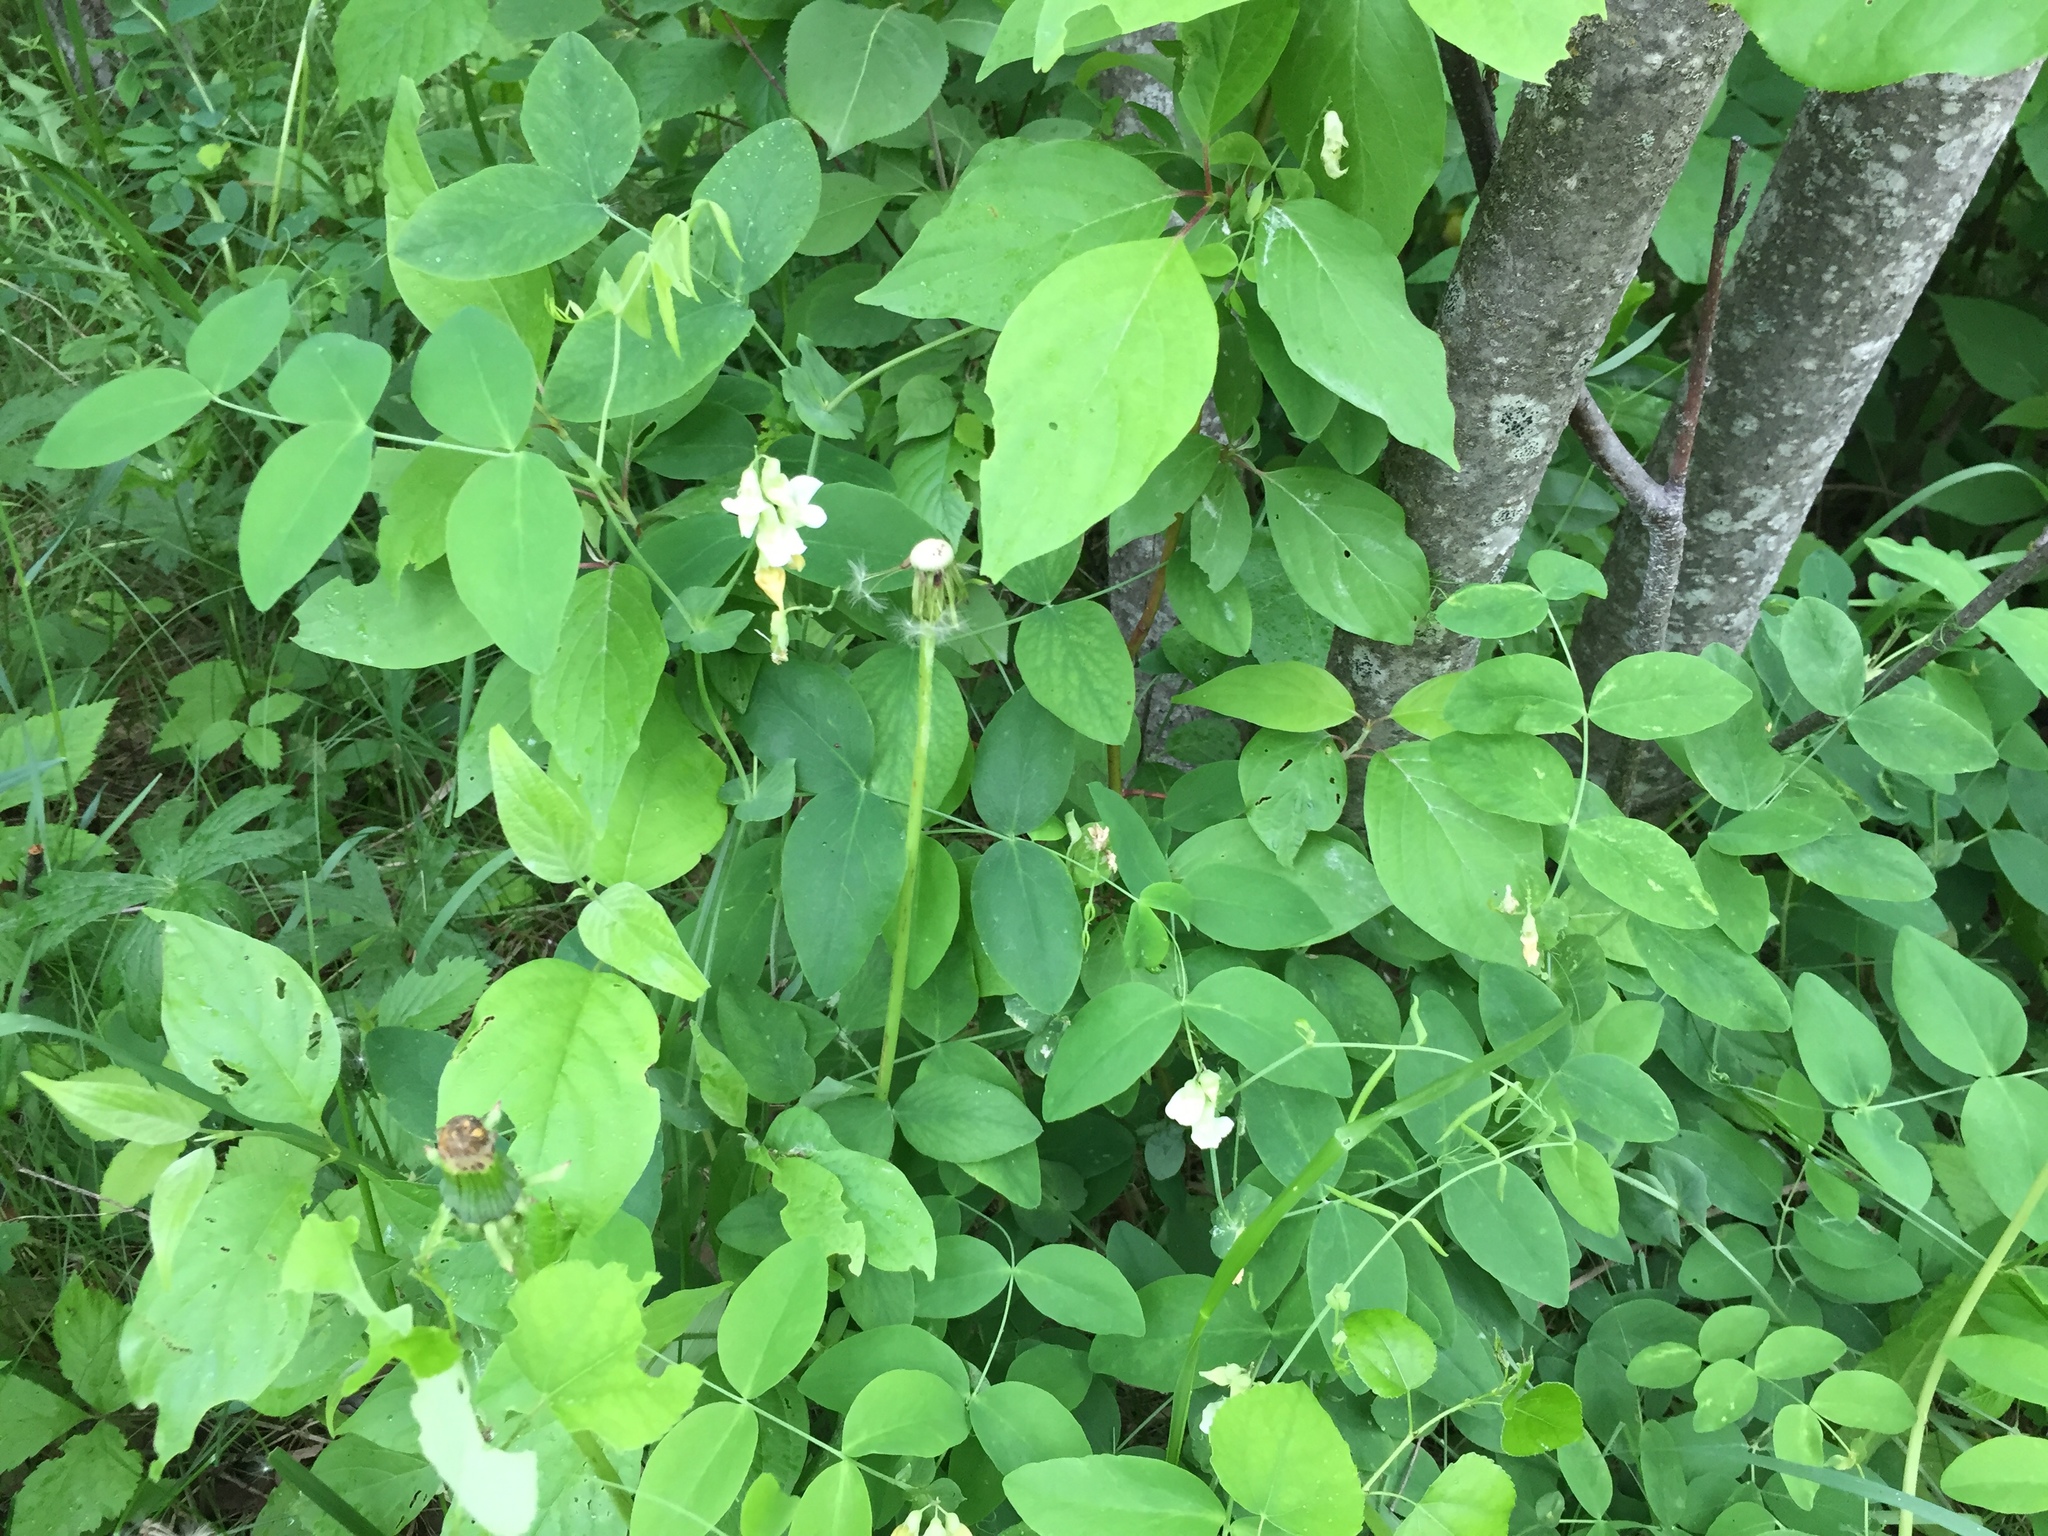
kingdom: Plantae
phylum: Tracheophyta
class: Magnoliopsida
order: Fabales
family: Fabaceae
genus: Lathyrus
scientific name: Lathyrus ochroleucus
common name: Pale vetchling
